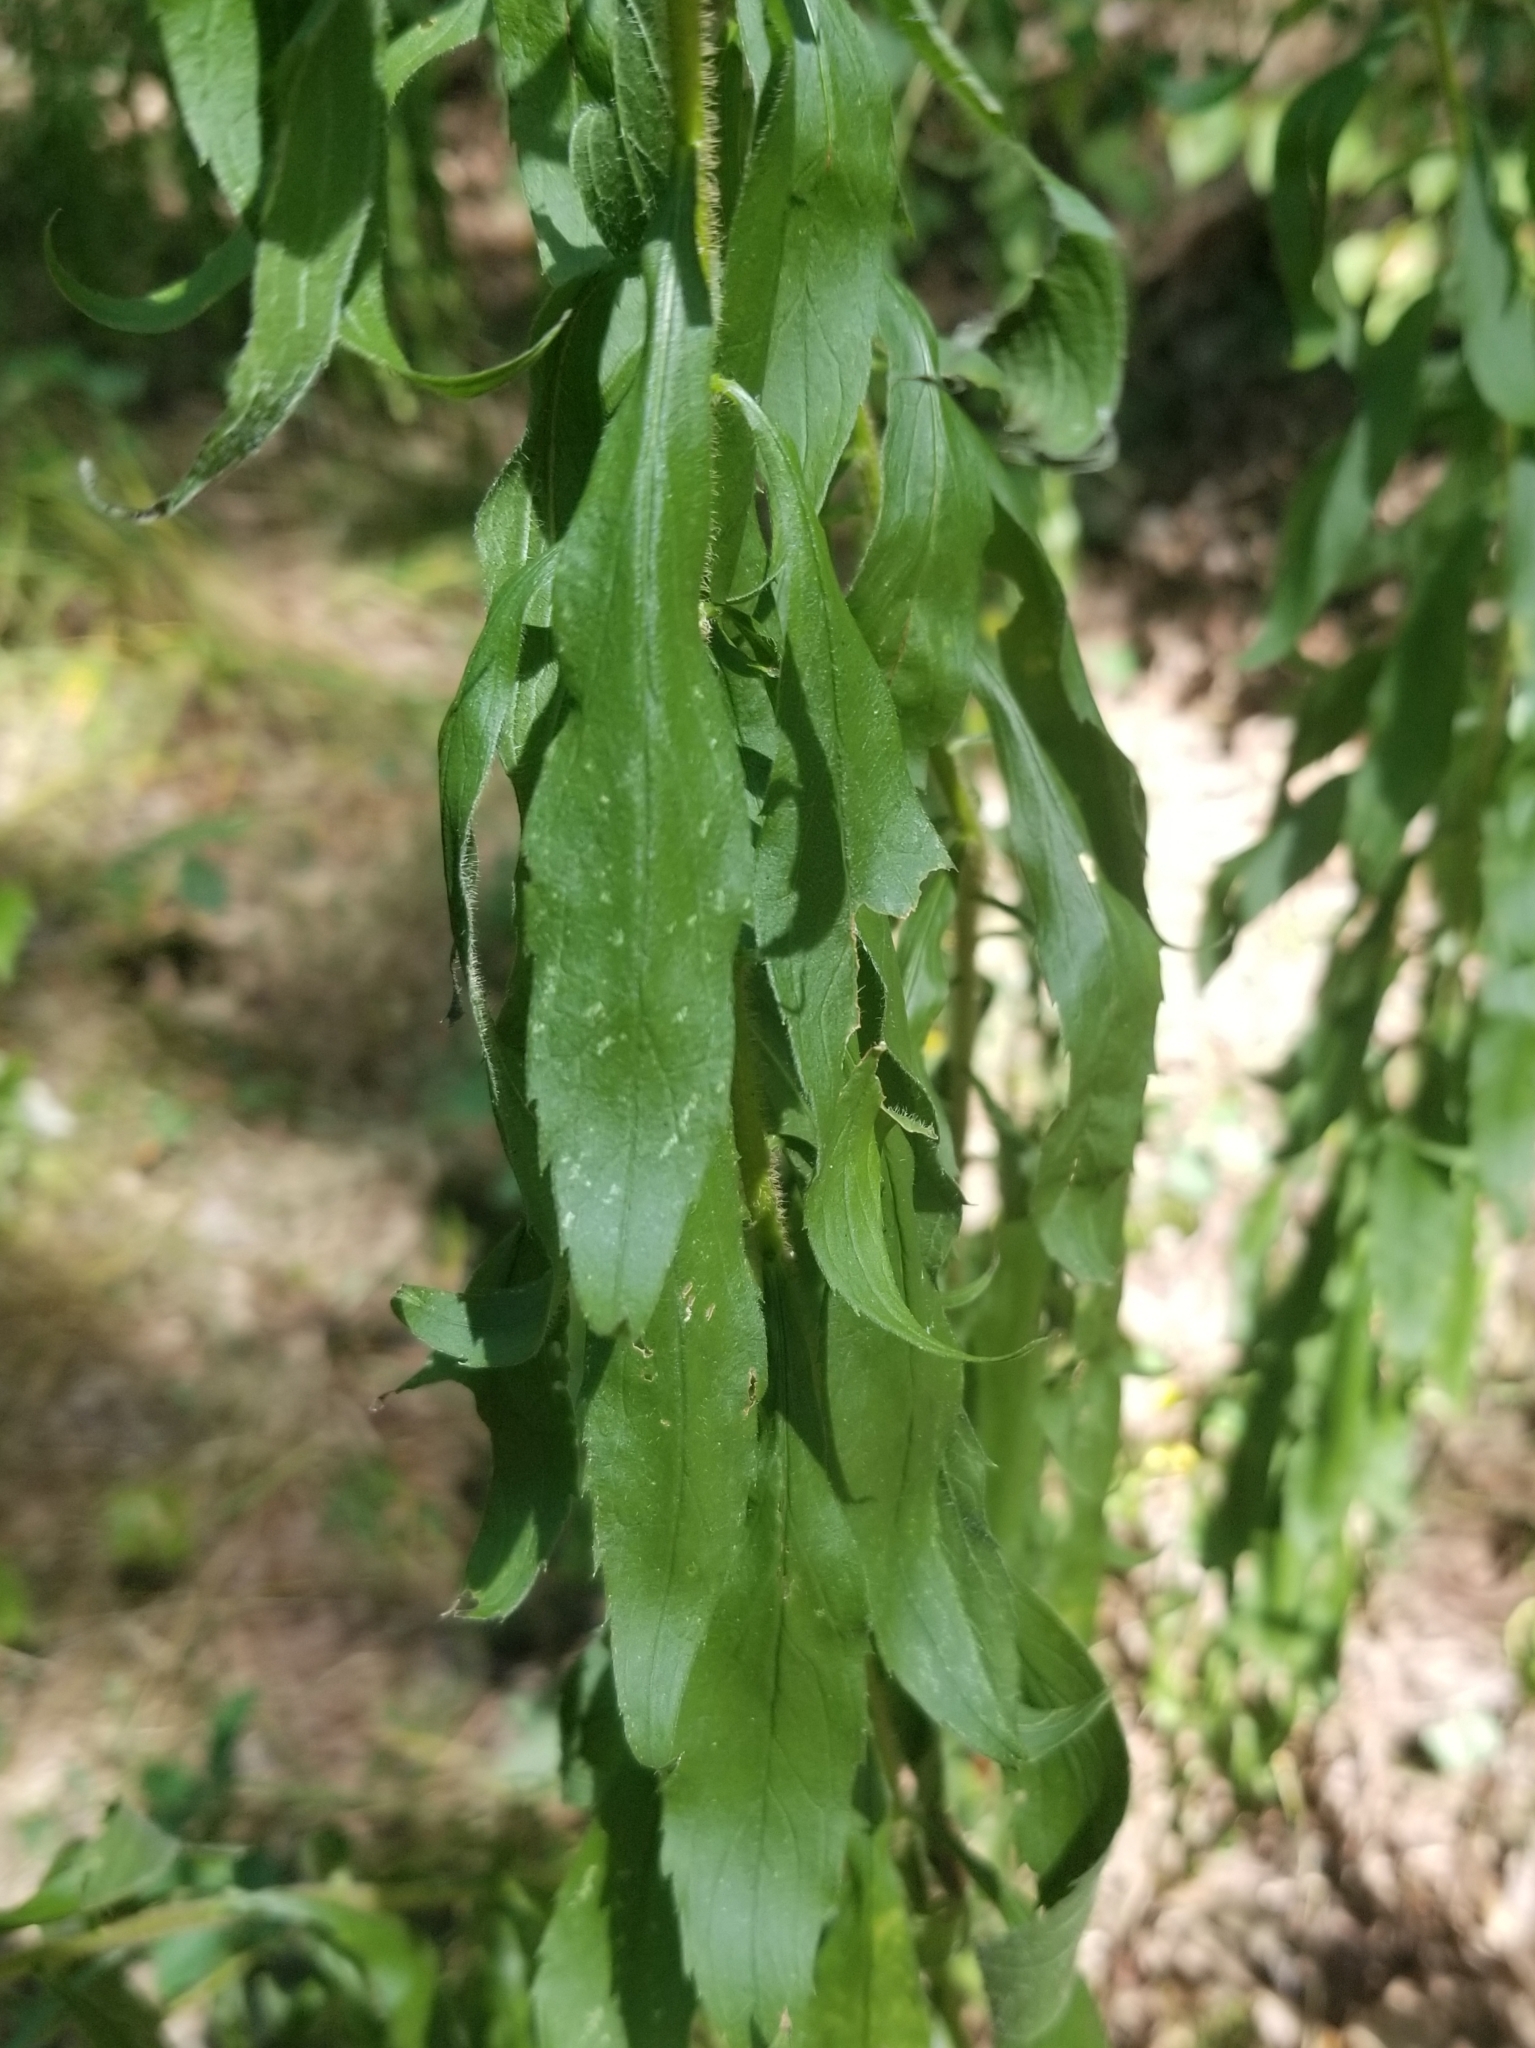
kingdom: Plantae
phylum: Tracheophyta
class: Magnoliopsida
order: Asterales
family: Asteraceae
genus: Solidago
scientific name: Solidago rugosa
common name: Rough-stemmed goldenrod
